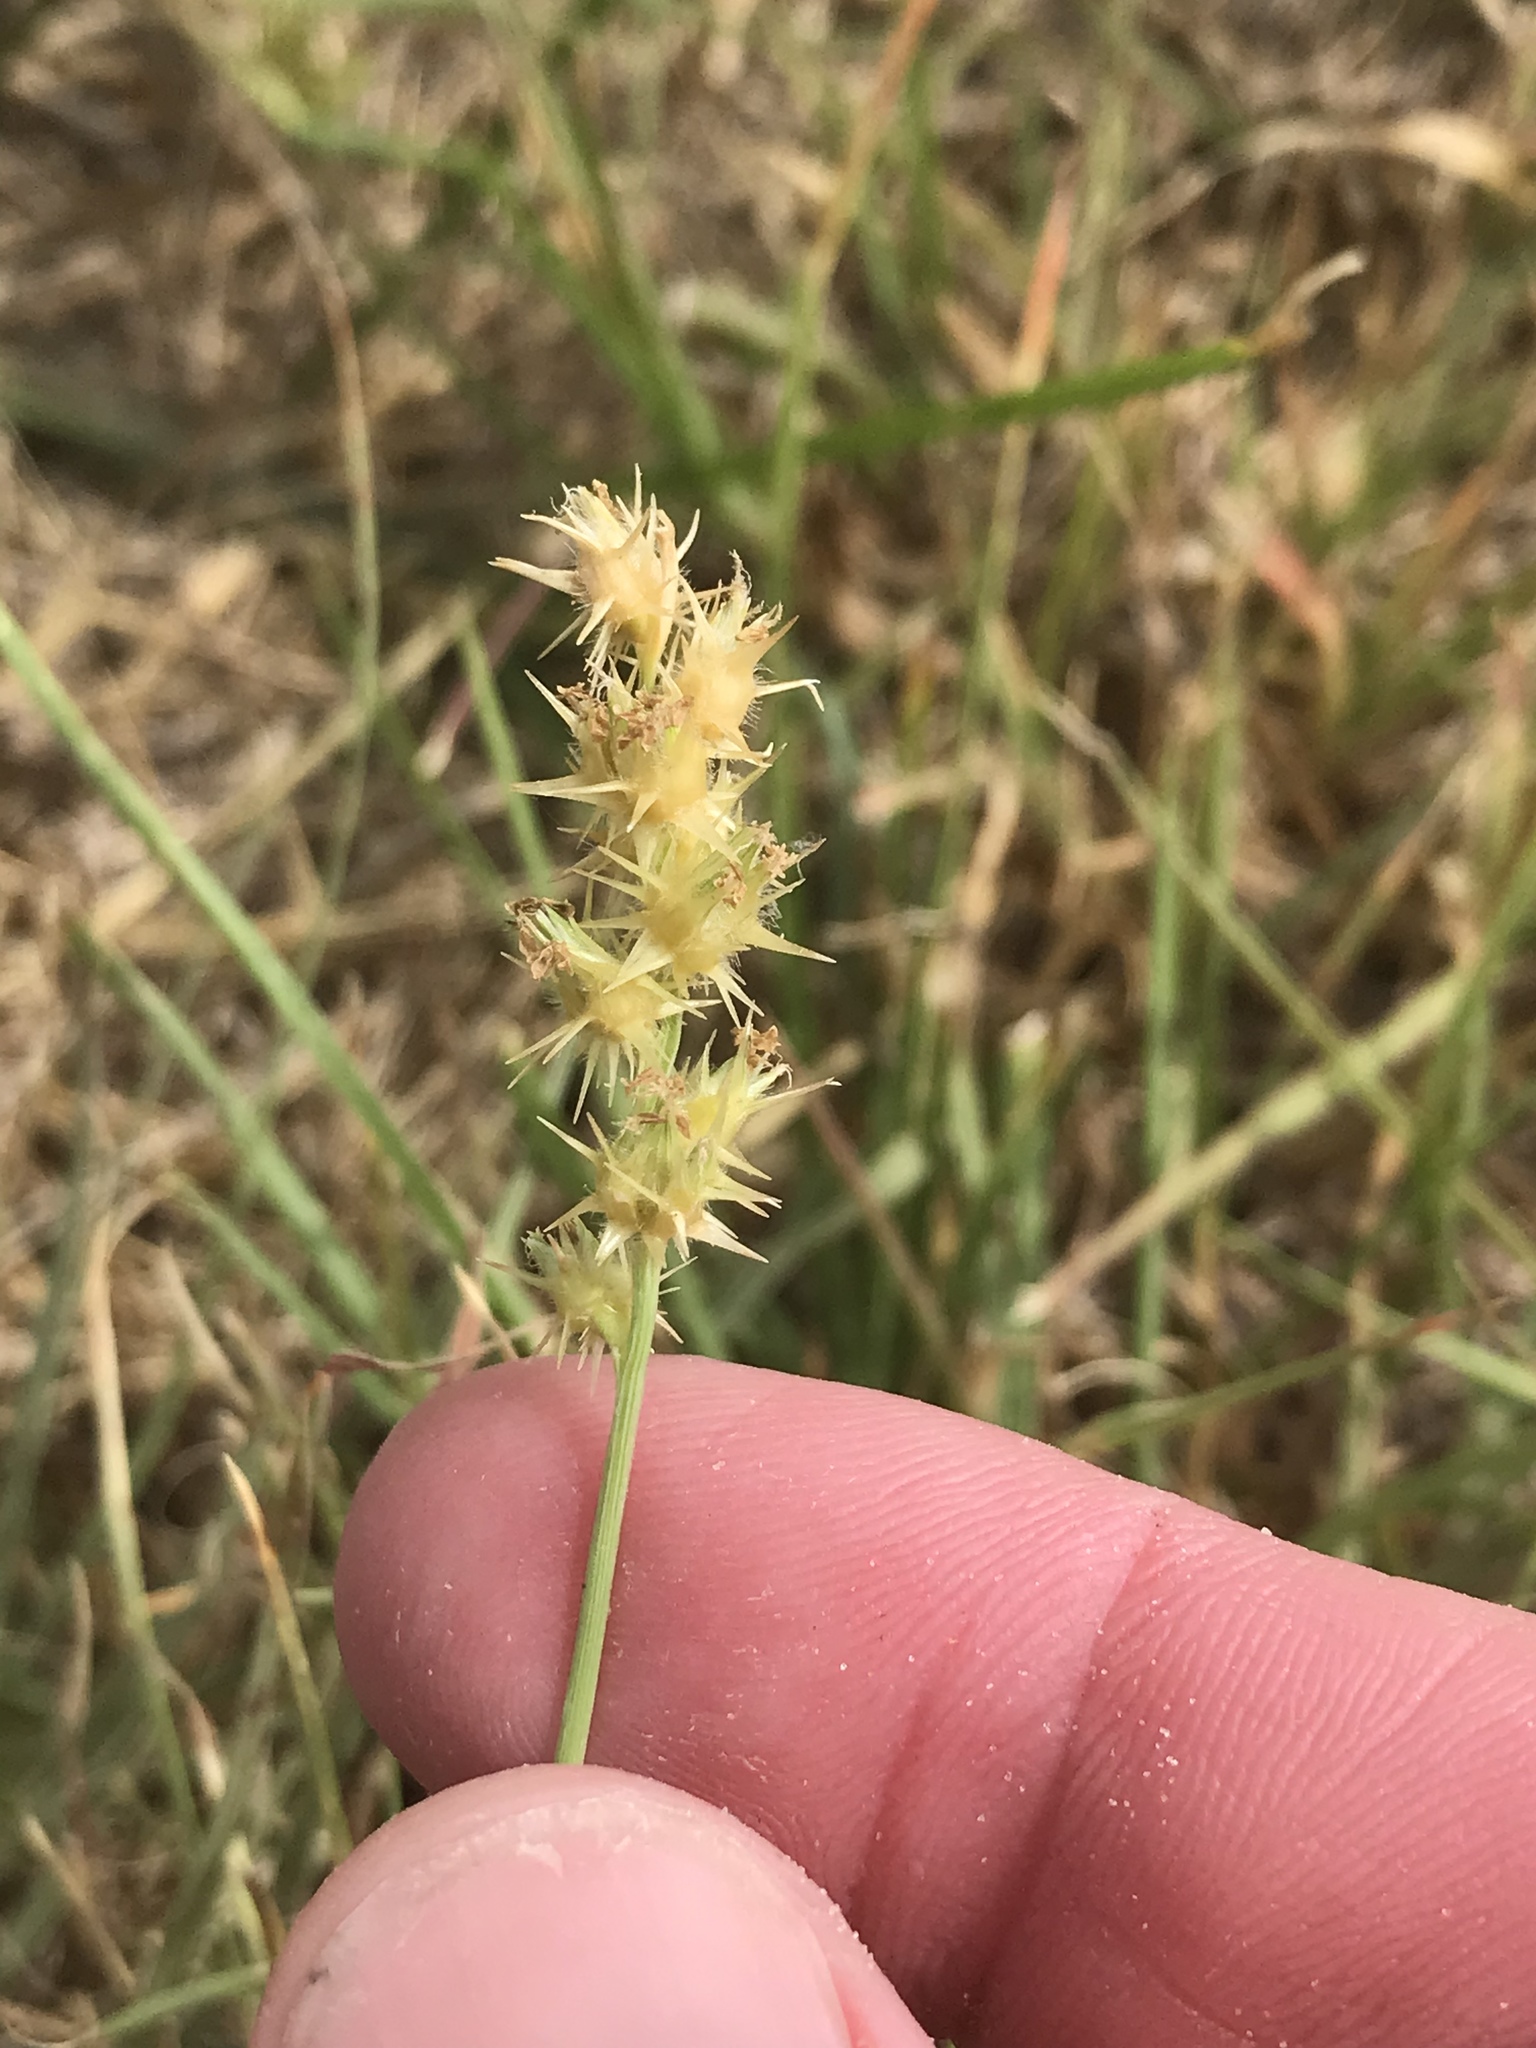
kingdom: Plantae
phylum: Tracheophyta
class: Liliopsida
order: Poales
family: Poaceae
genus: Cenchrus
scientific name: Cenchrus spinifex
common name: Coast sandbur
